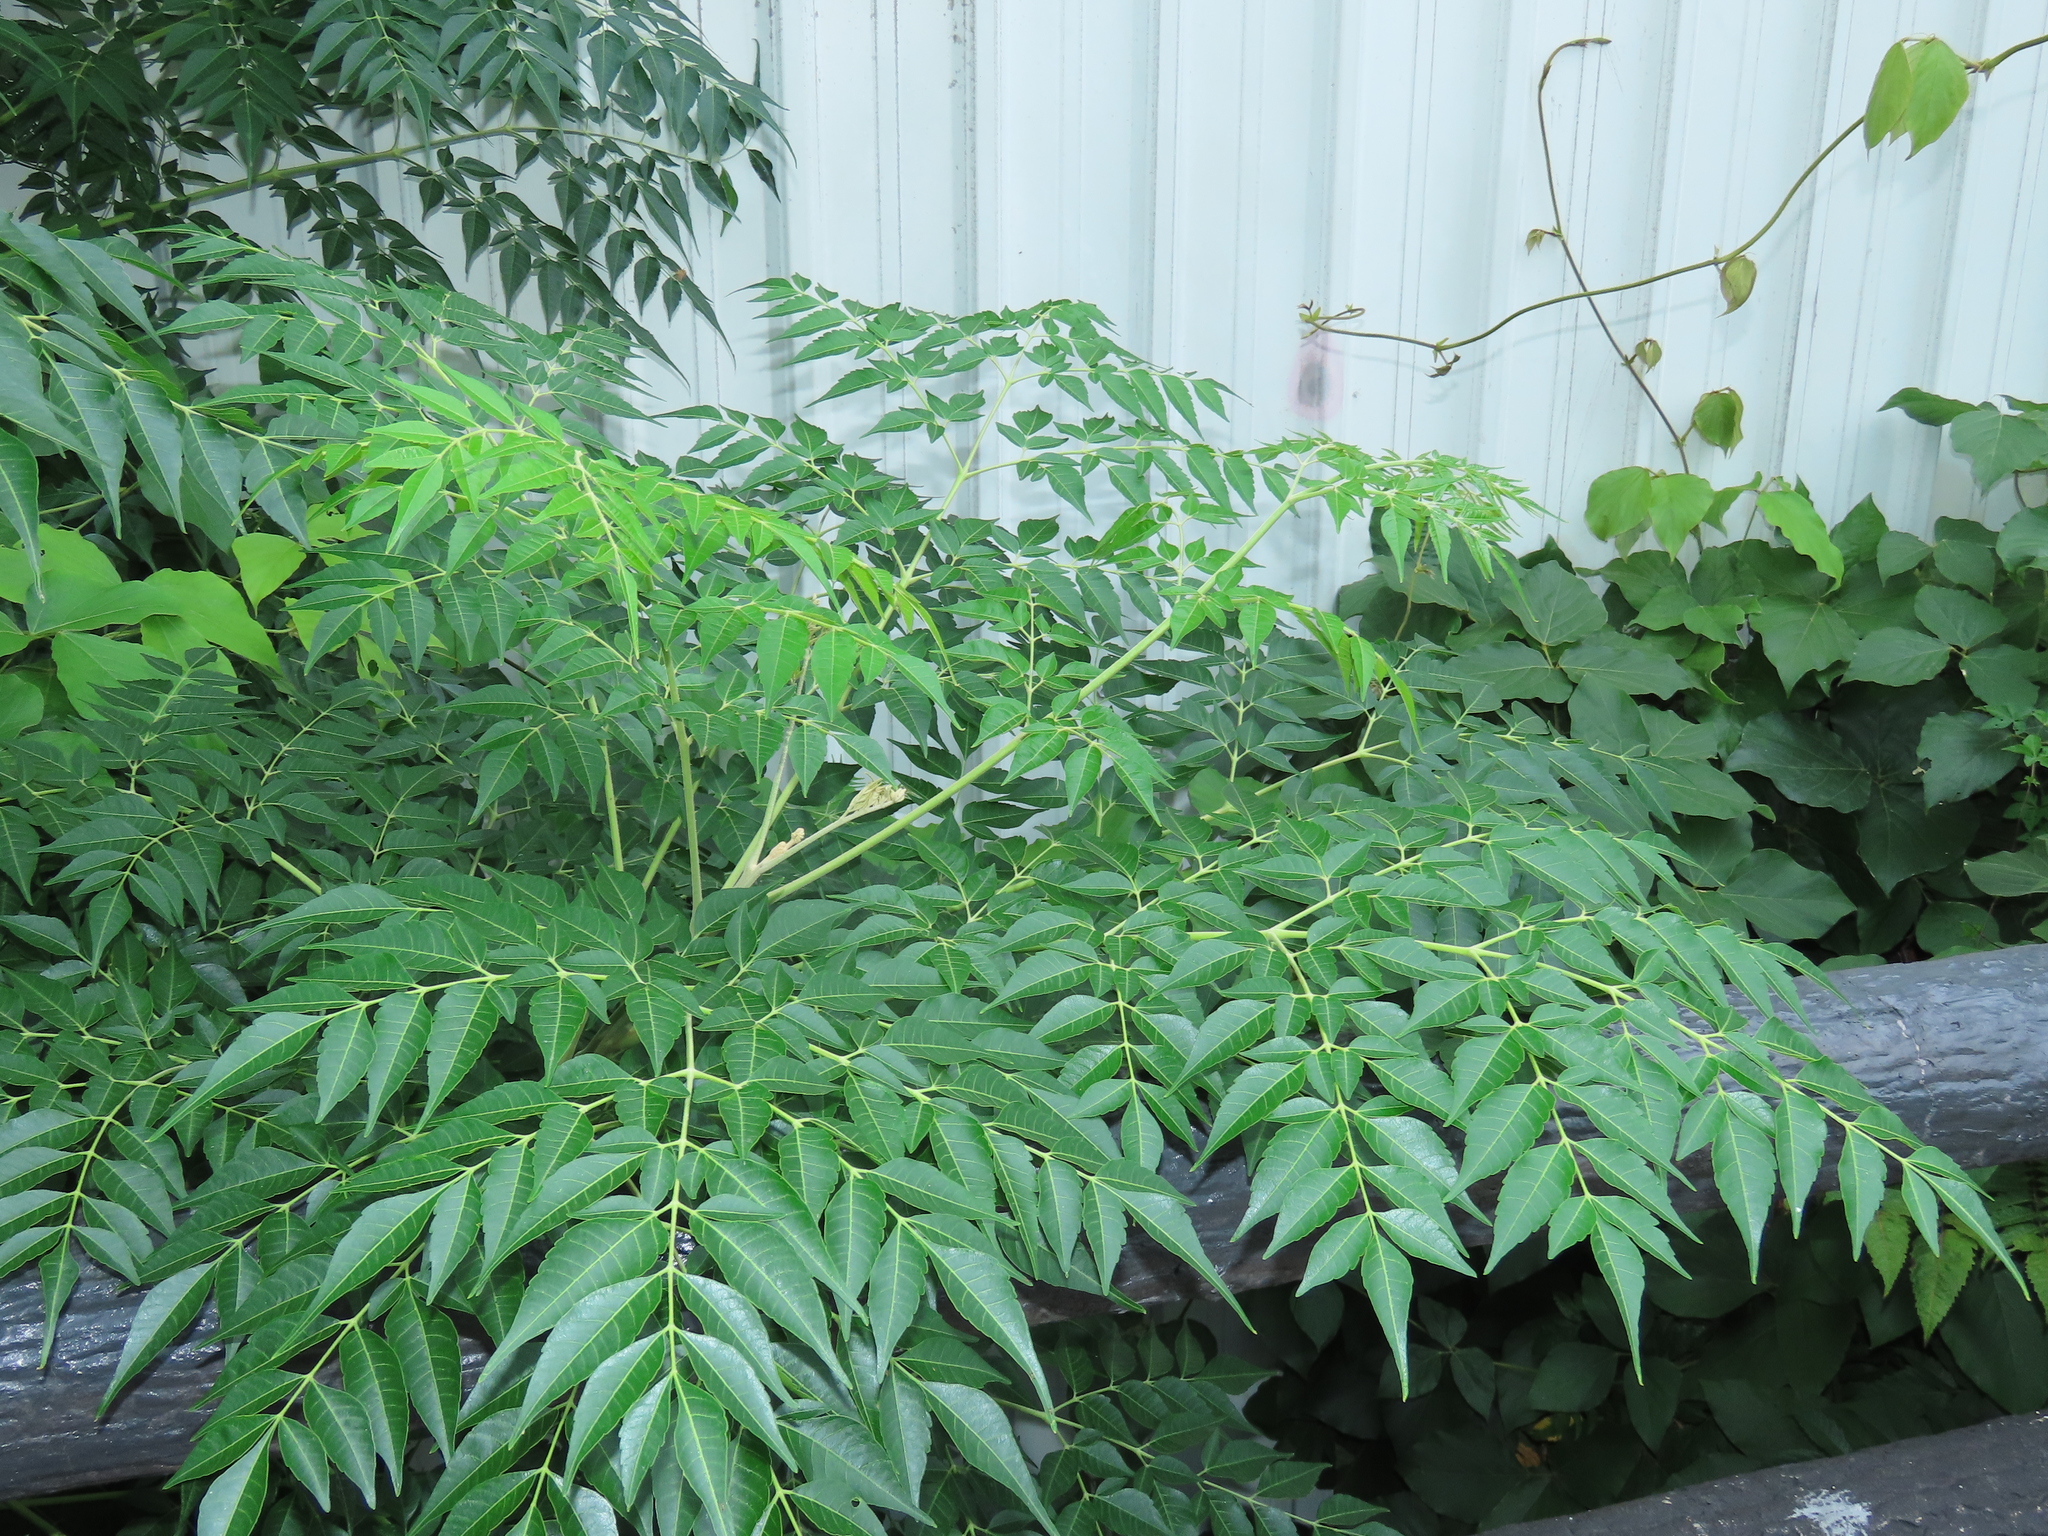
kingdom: Plantae
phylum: Tracheophyta
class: Magnoliopsida
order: Sapindales
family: Meliaceae
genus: Melia
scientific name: Melia azedarach
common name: Chinaberrytree
